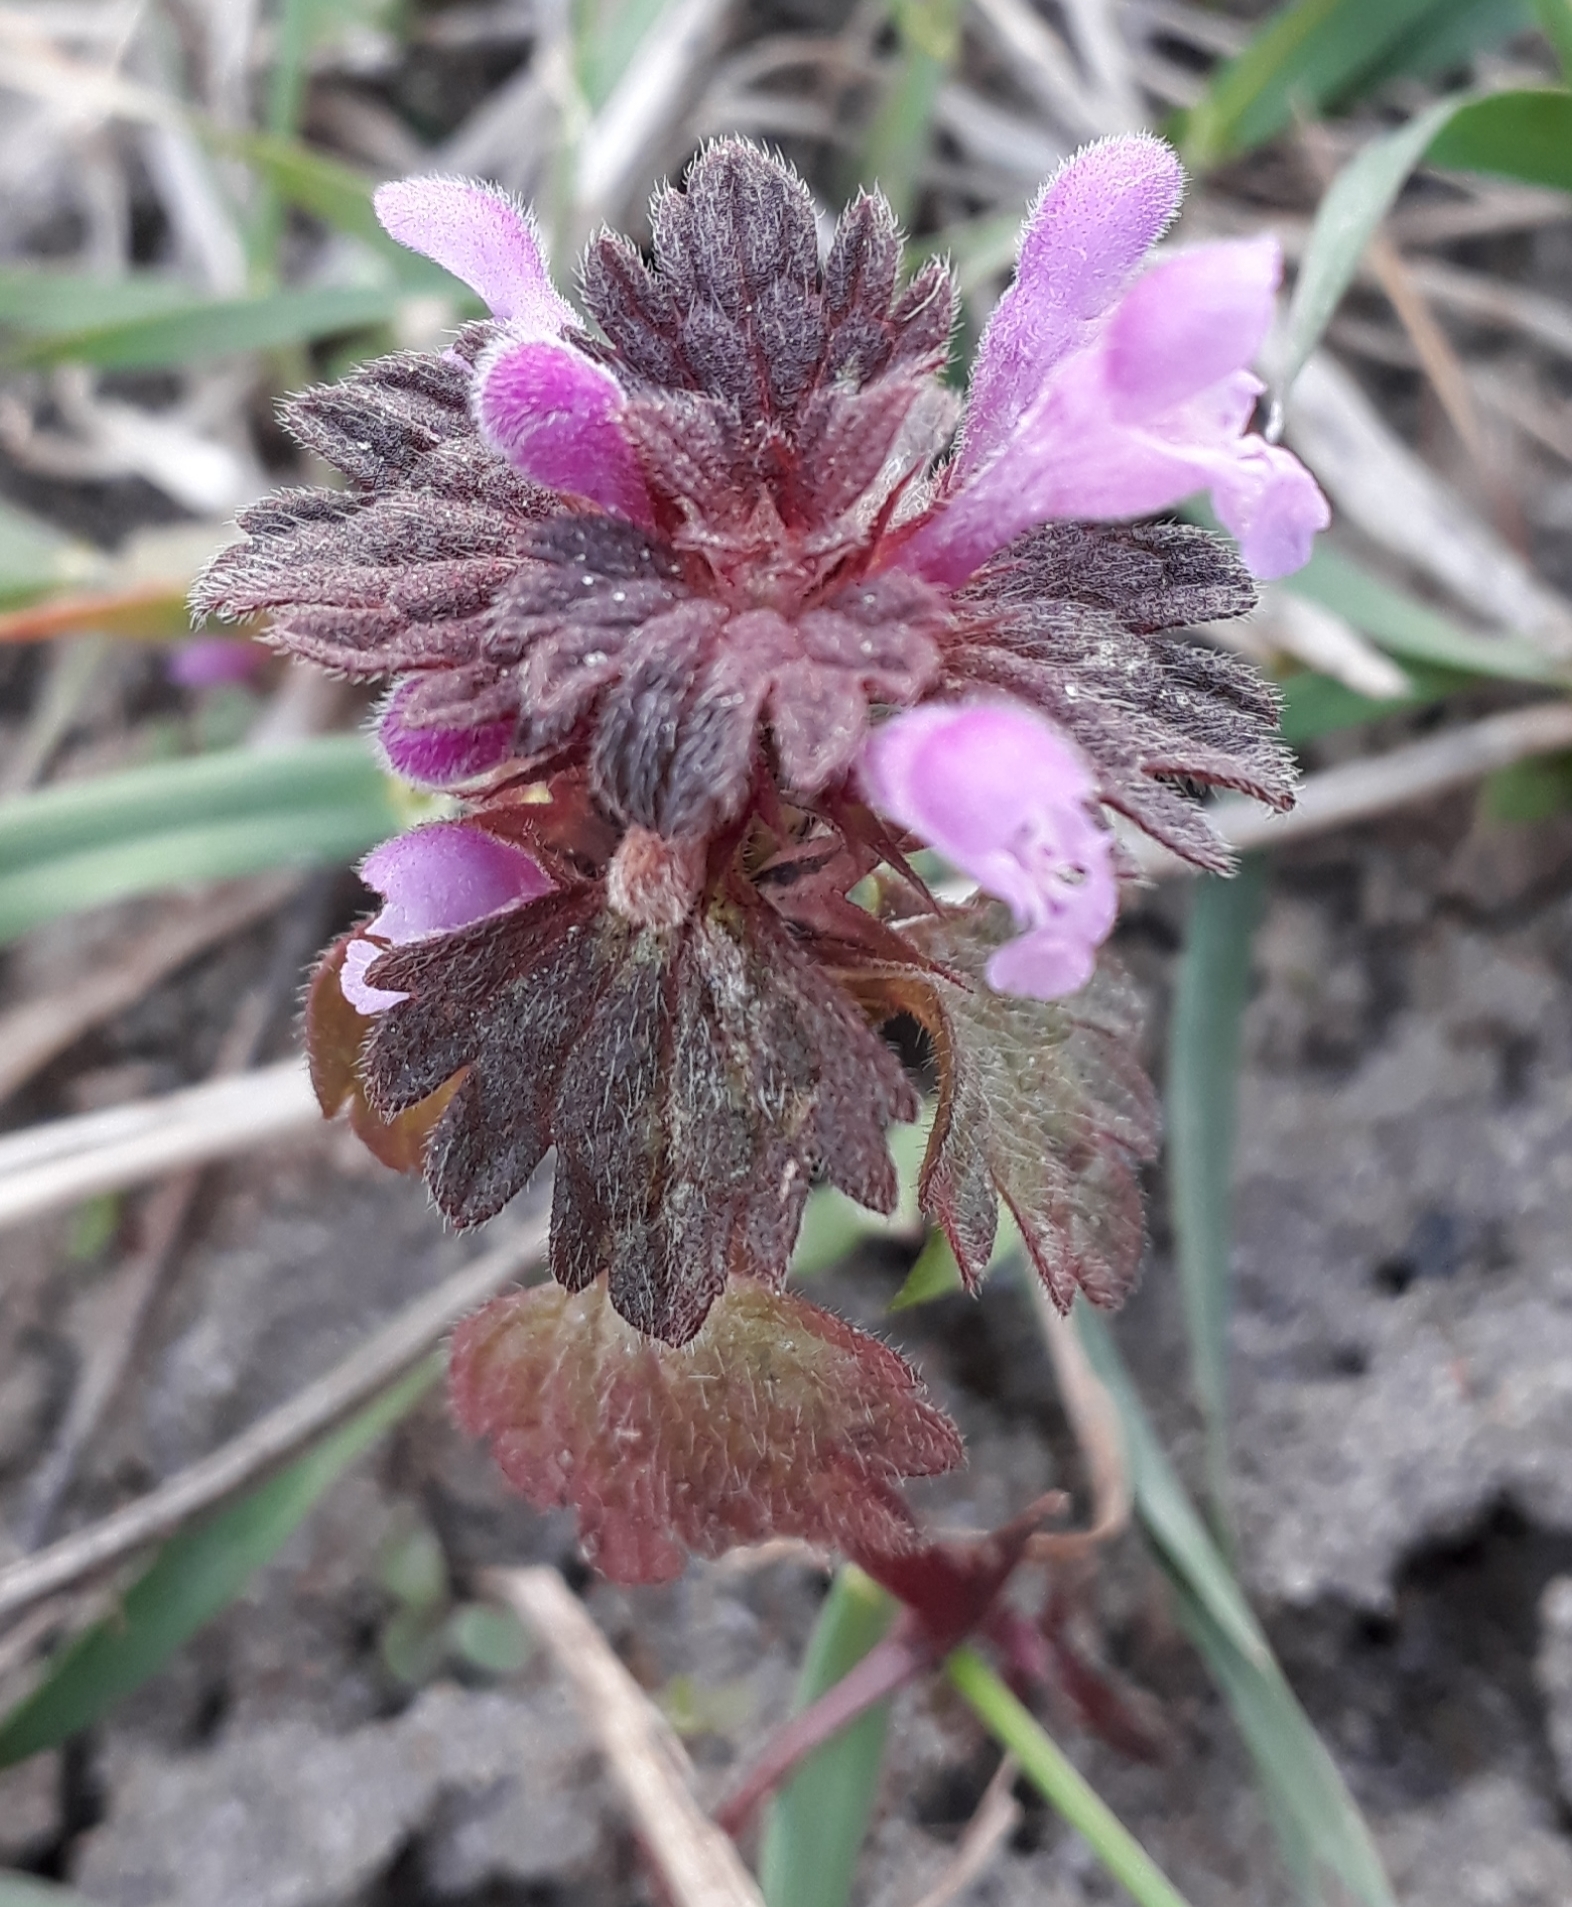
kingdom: Plantae
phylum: Tracheophyta
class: Magnoliopsida
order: Lamiales
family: Lamiaceae
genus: Lamium
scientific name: Lamium hybridum
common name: Cut-leaved dead-nettle
